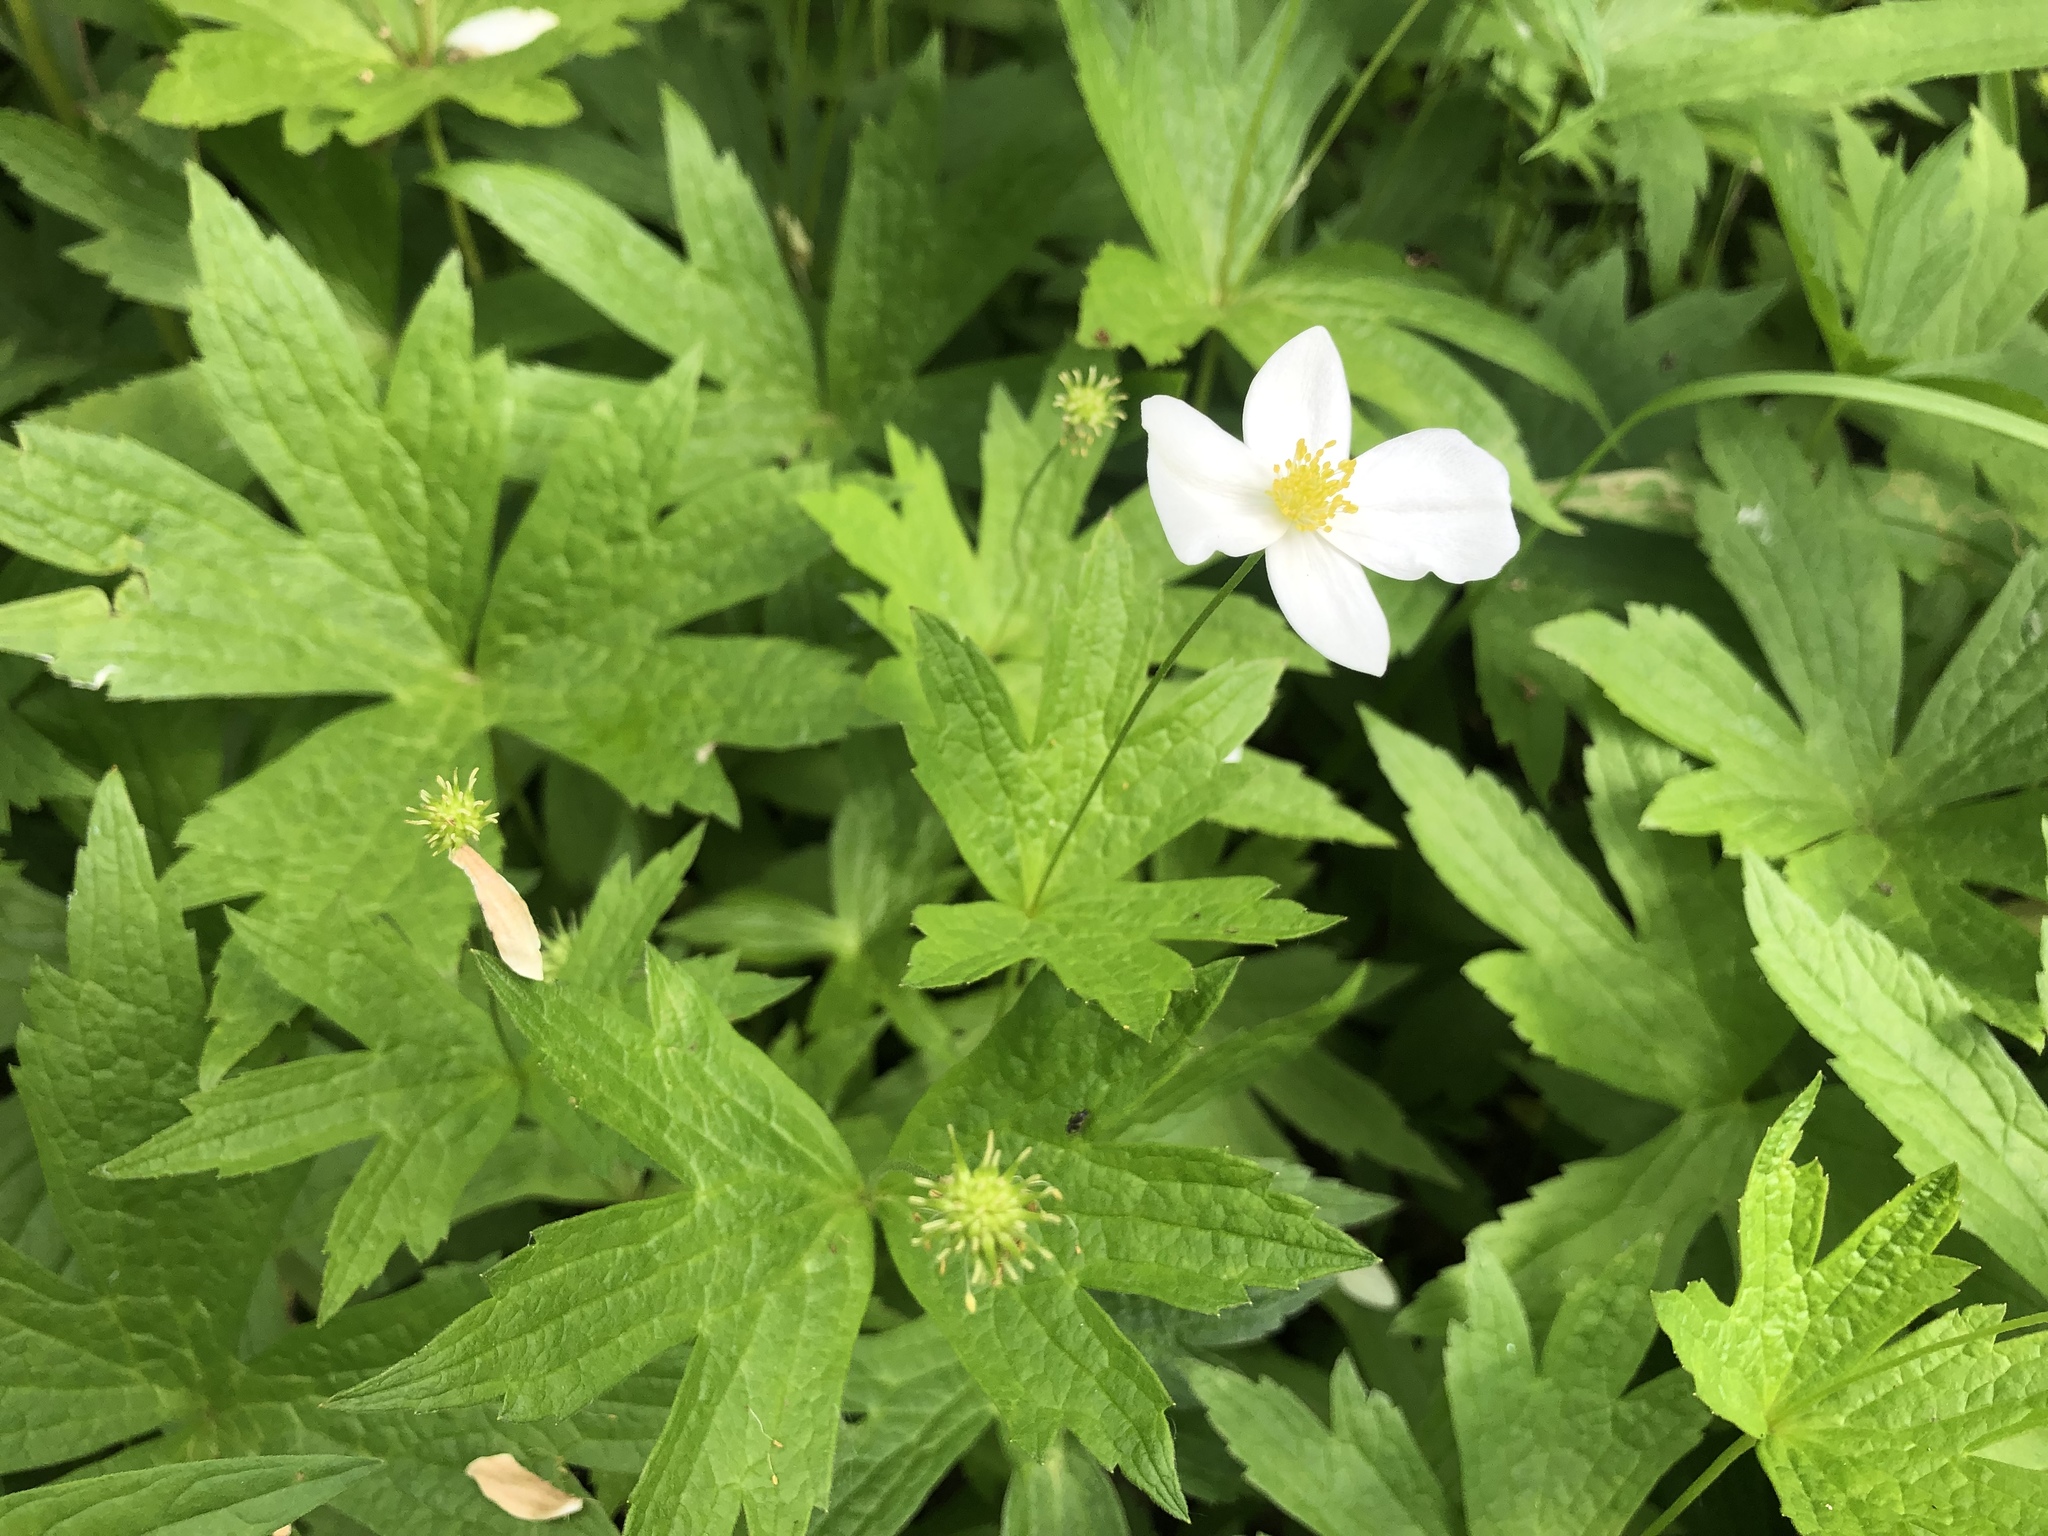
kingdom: Plantae
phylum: Tracheophyta
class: Magnoliopsida
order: Ranunculales
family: Ranunculaceae
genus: Anemonastrum
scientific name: Anemonastrum canadense
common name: Canada anemone
